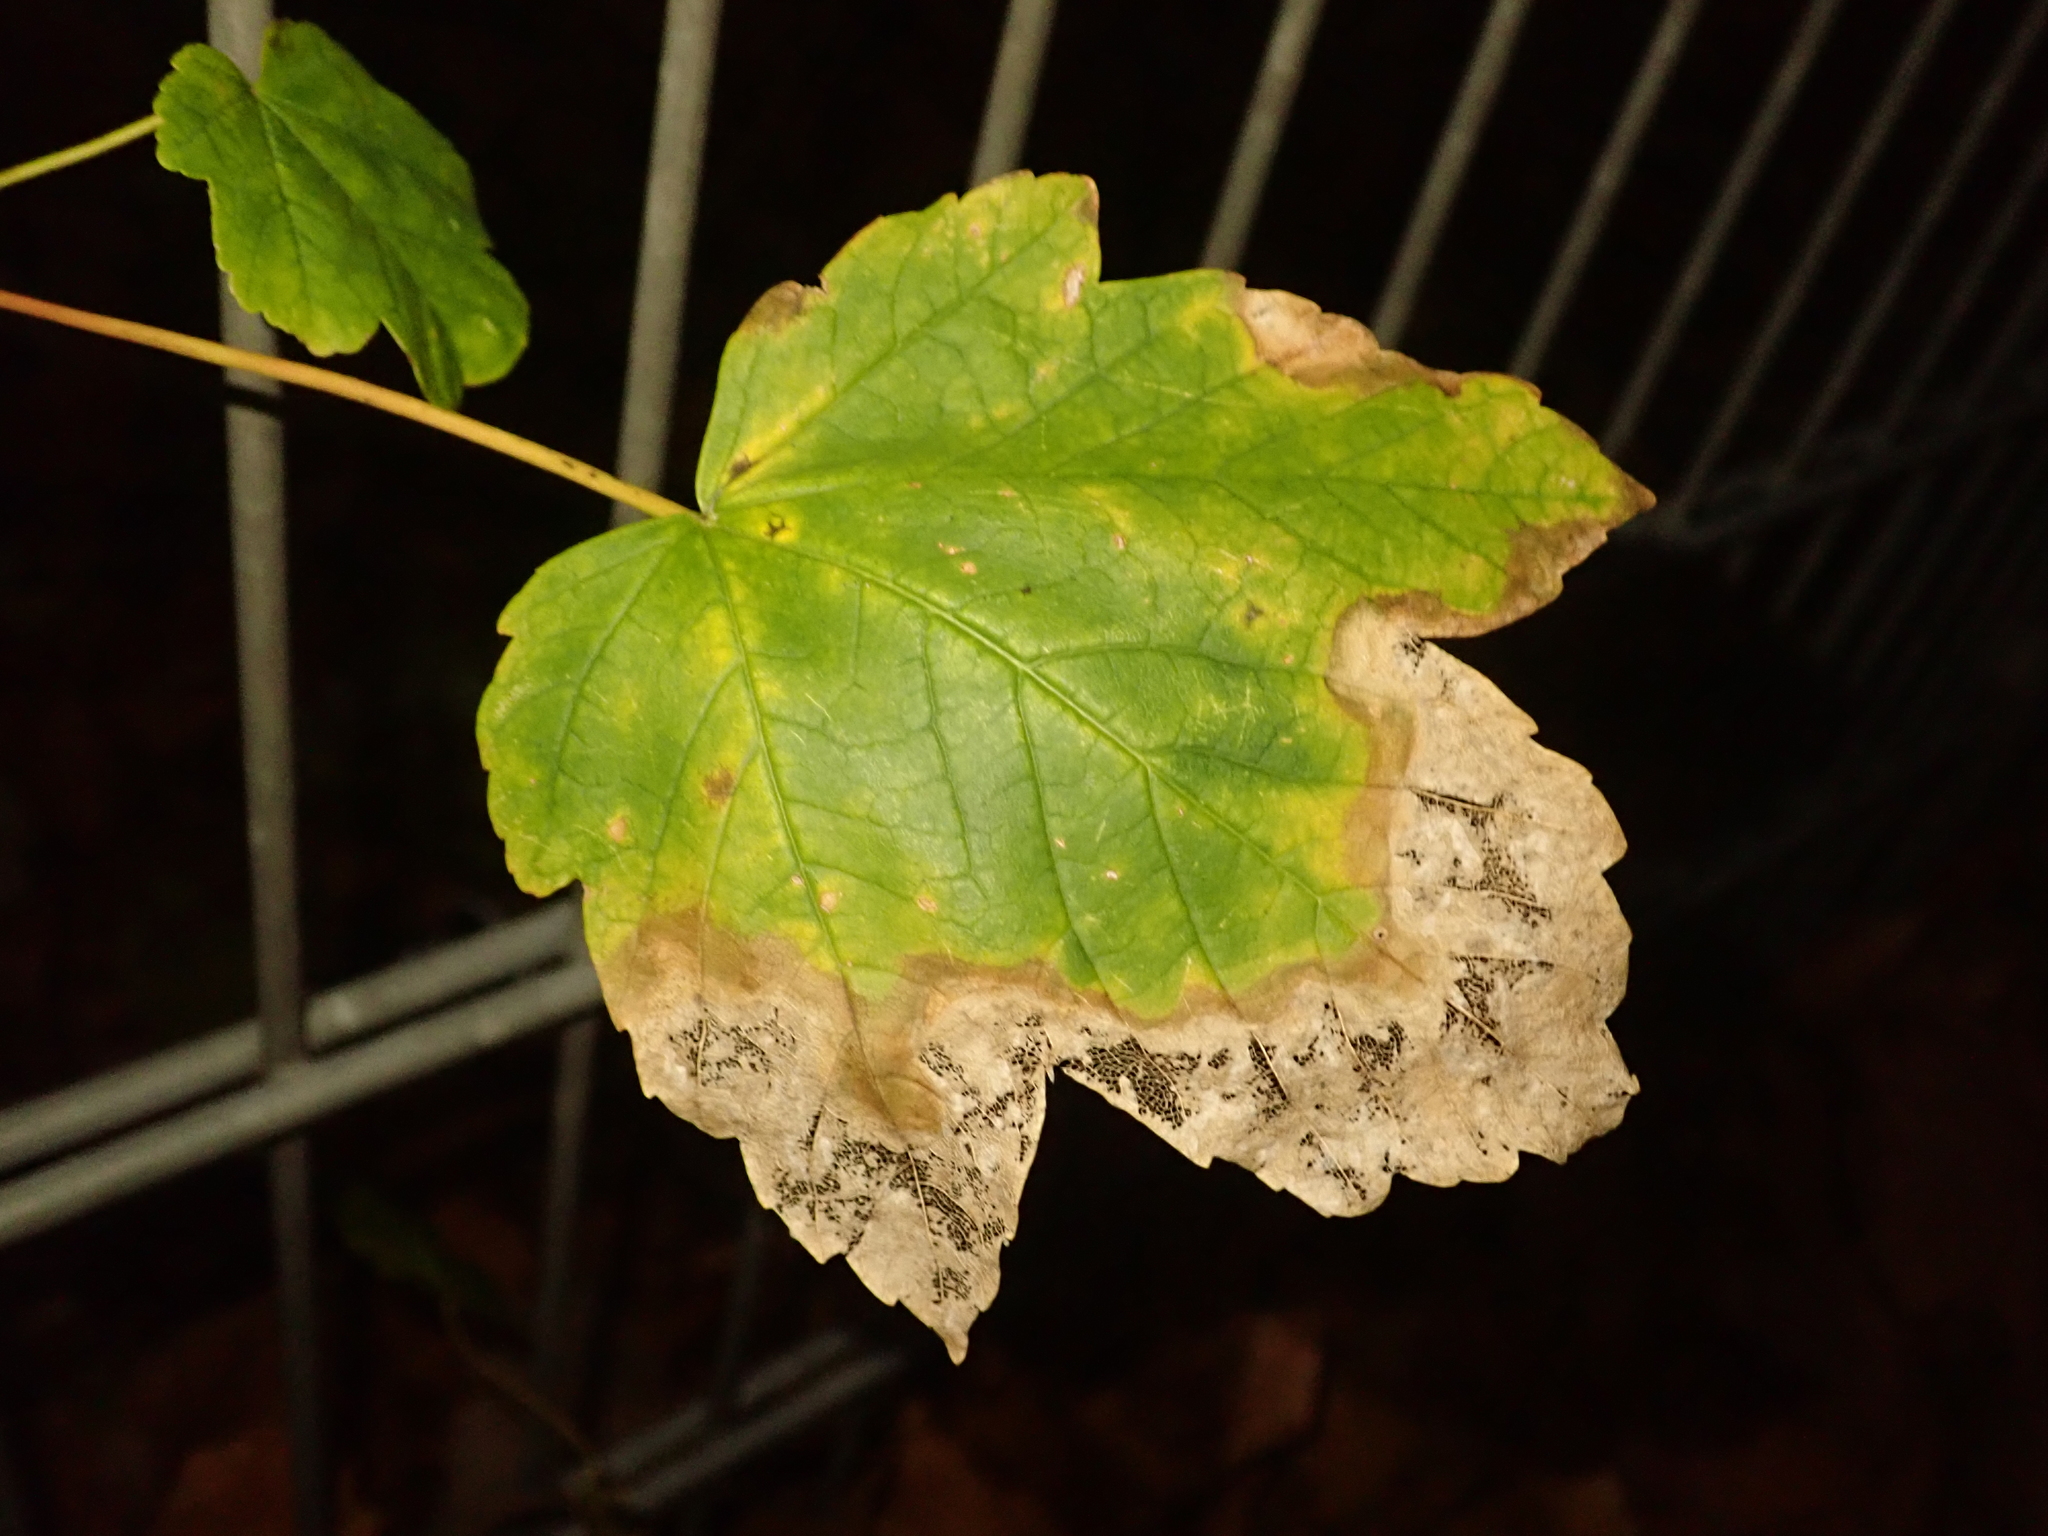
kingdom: Plantae
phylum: Tracheophyta
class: Magnoliopsida
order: Sapindales
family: Sapindaceae
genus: Acer
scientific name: Acer pseudoplatanus
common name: Sycamore
